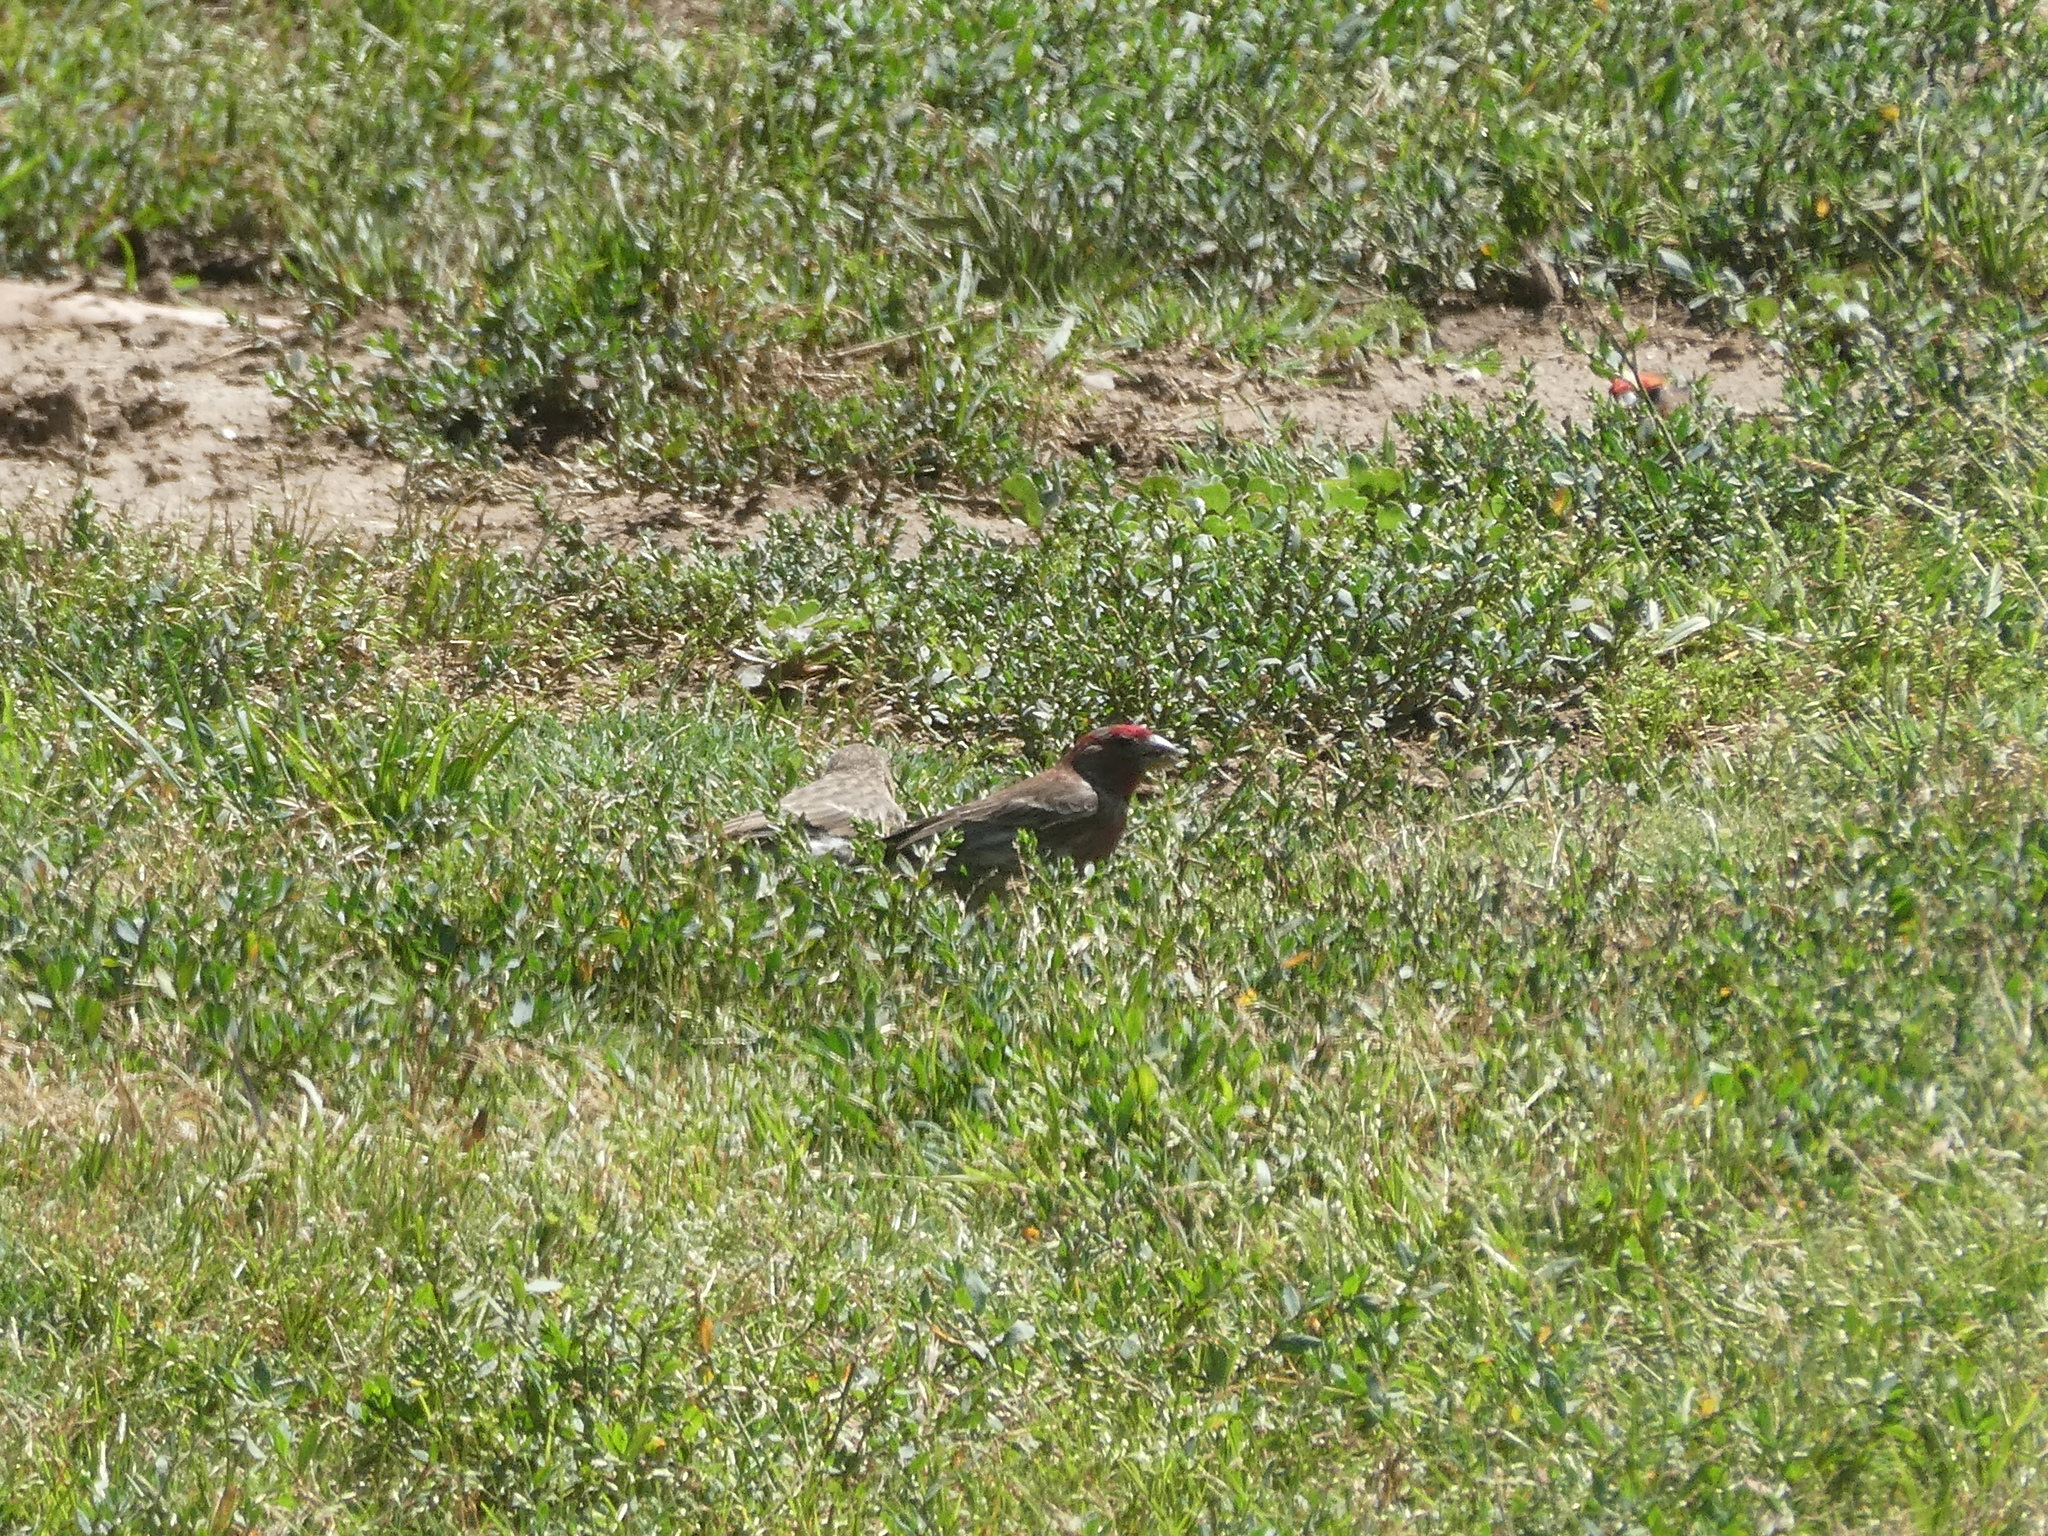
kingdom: Animalia
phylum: Chordata
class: Aves
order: Passeriformes
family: Fringillidae
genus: Haemorhous
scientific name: Haemorhous mexicanus
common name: House finch
